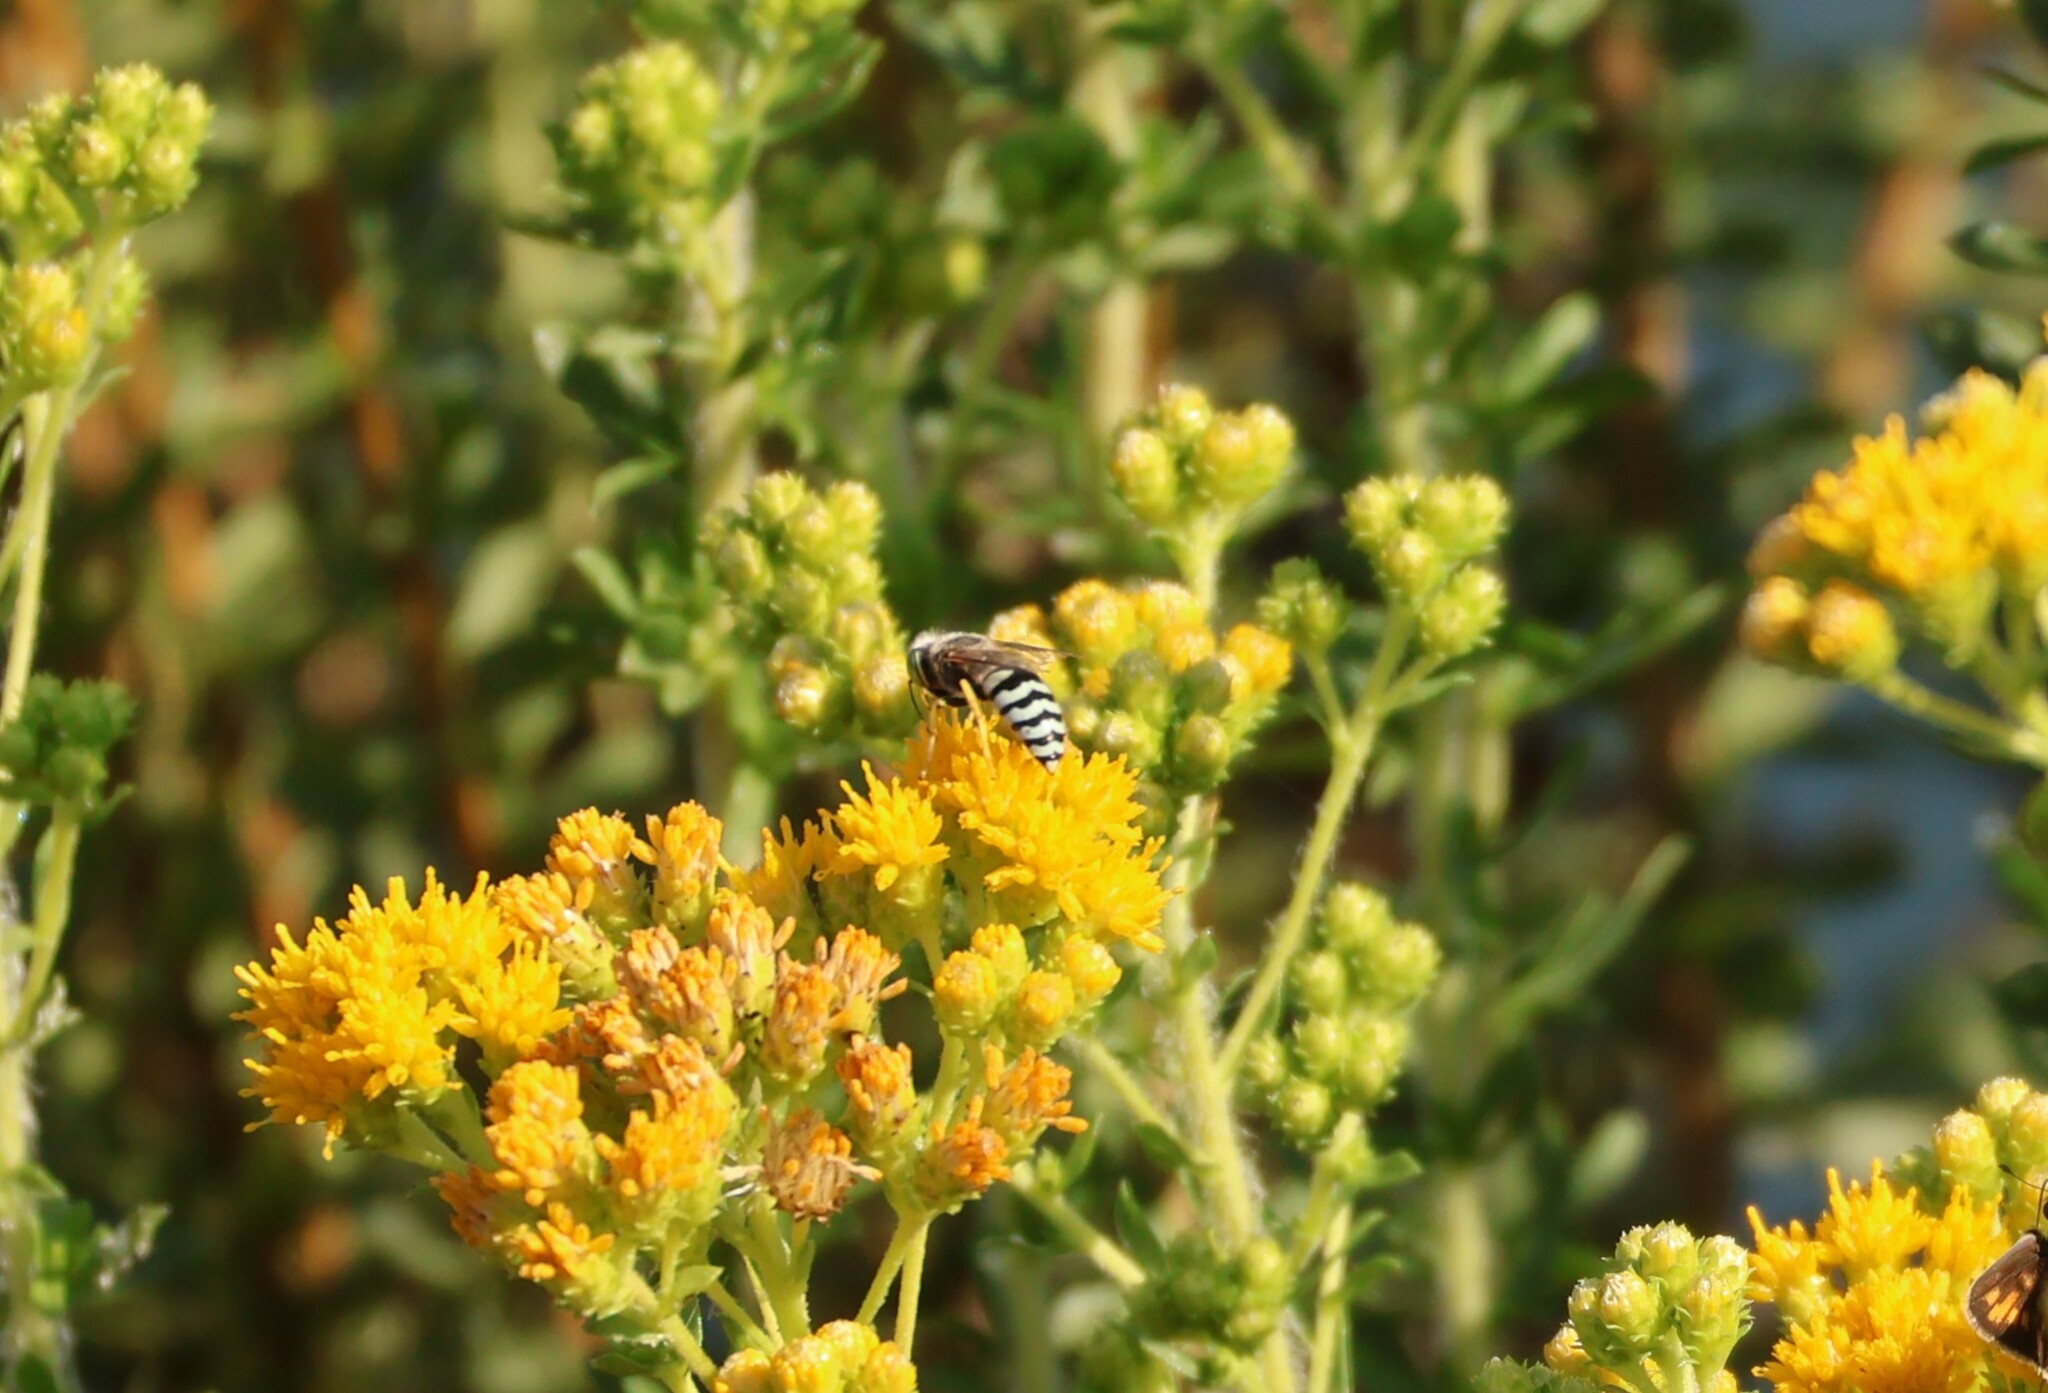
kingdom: Animalia
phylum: Arthropoda
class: Insecta
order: Hymenoptera
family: Crabronidae
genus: Bembix
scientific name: Bembix americana
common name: American sand wasp
